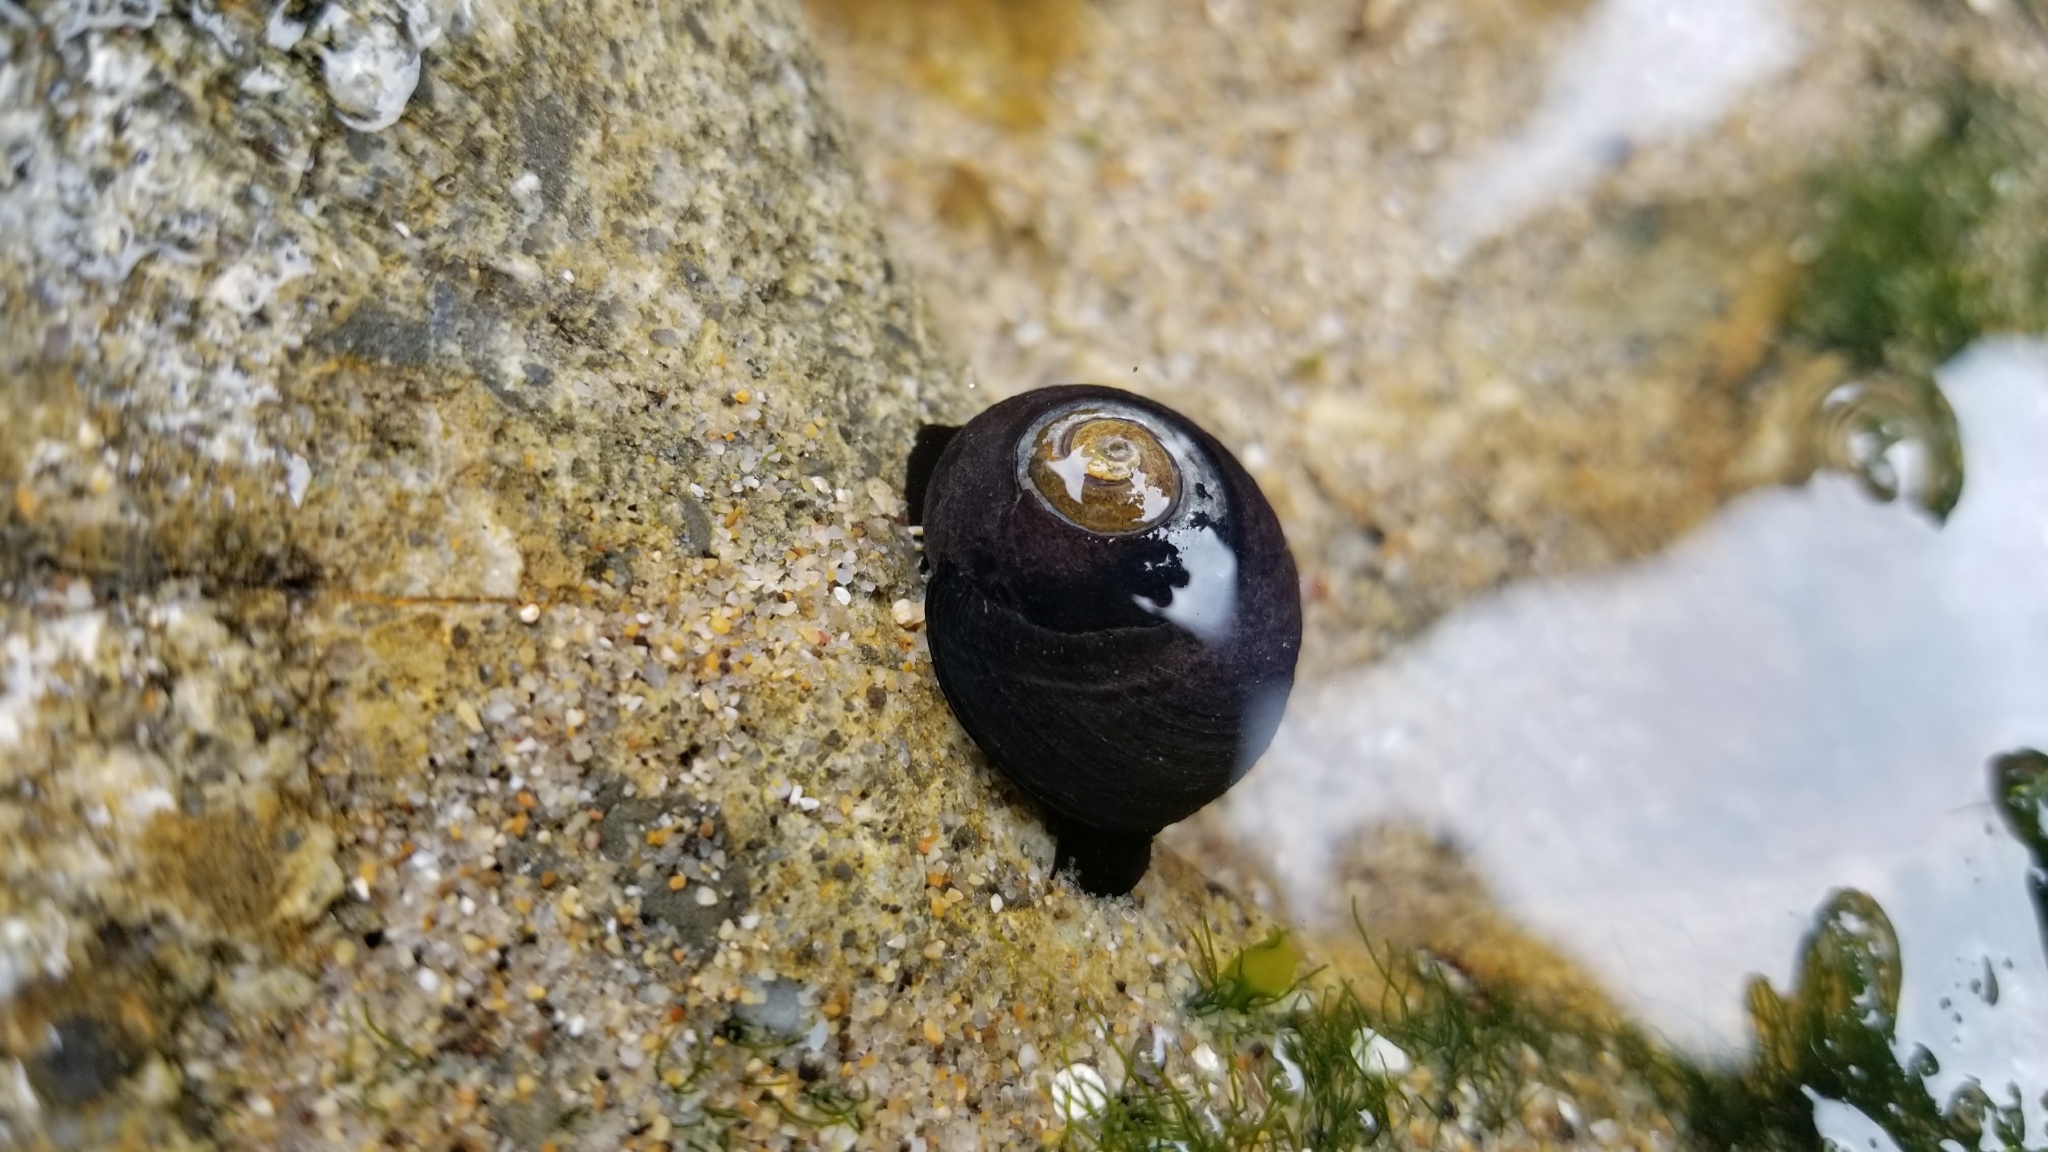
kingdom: Animalia
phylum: Mollusca
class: Gastropoda
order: Trochida
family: Tegulidae
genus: Tegula
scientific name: Tegula funebralis
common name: Black tegula
